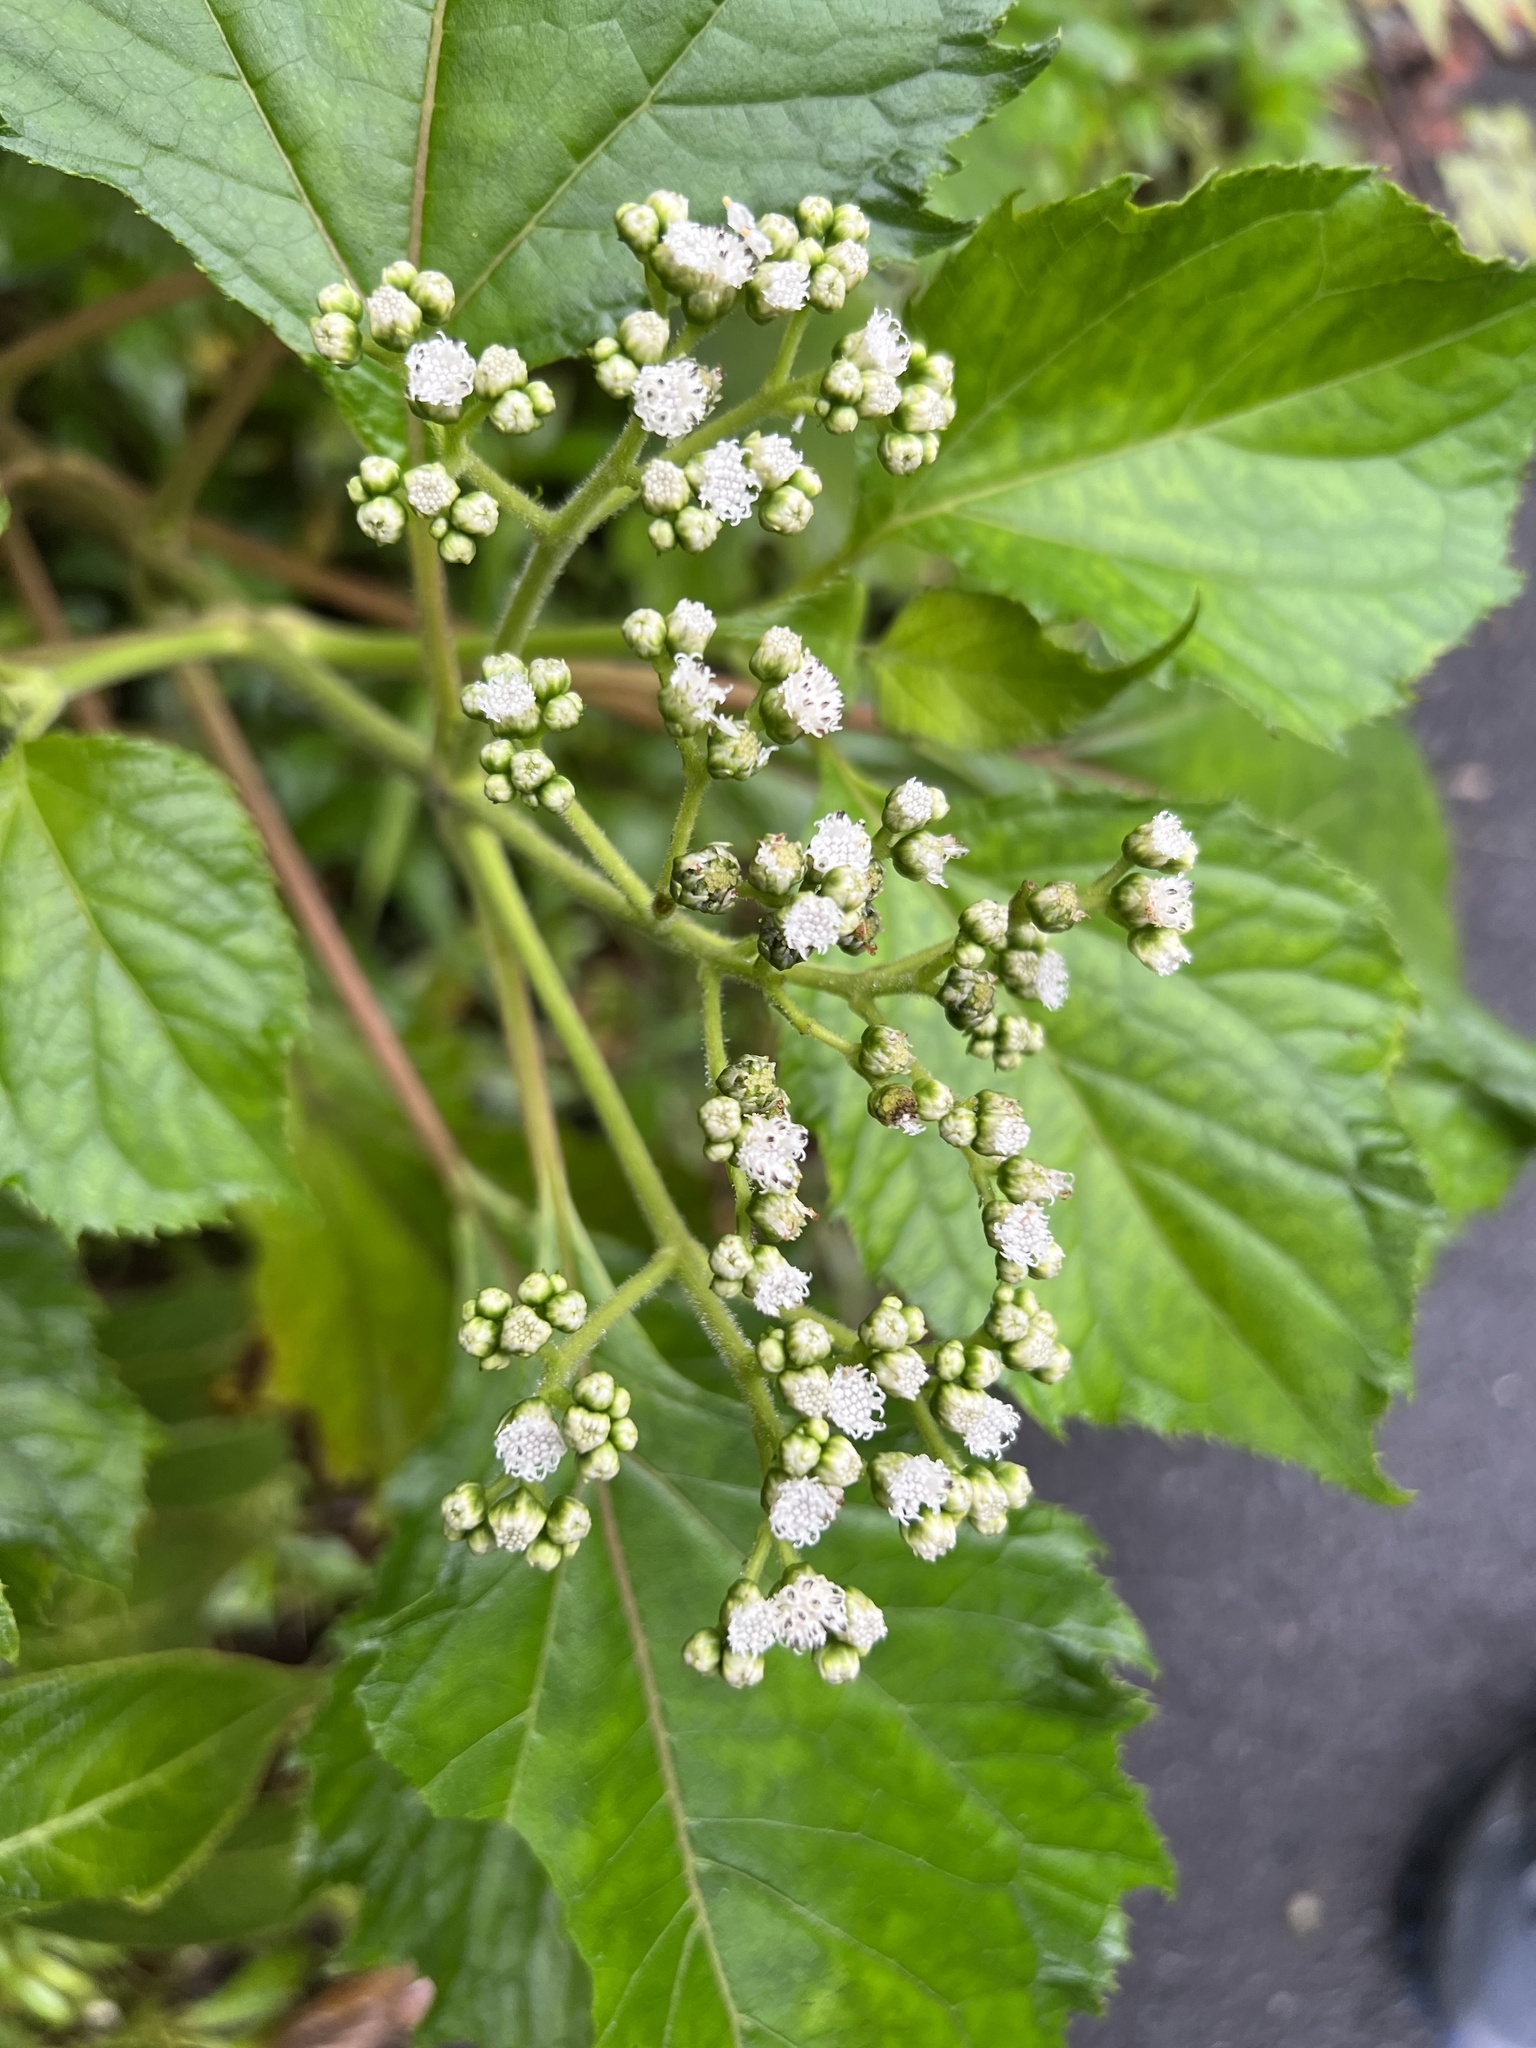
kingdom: Plantae
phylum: Tracheophyta
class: Magnoliopsida
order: Asterales
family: Asteraceae
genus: Clibadium
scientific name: Clibadium erosum
